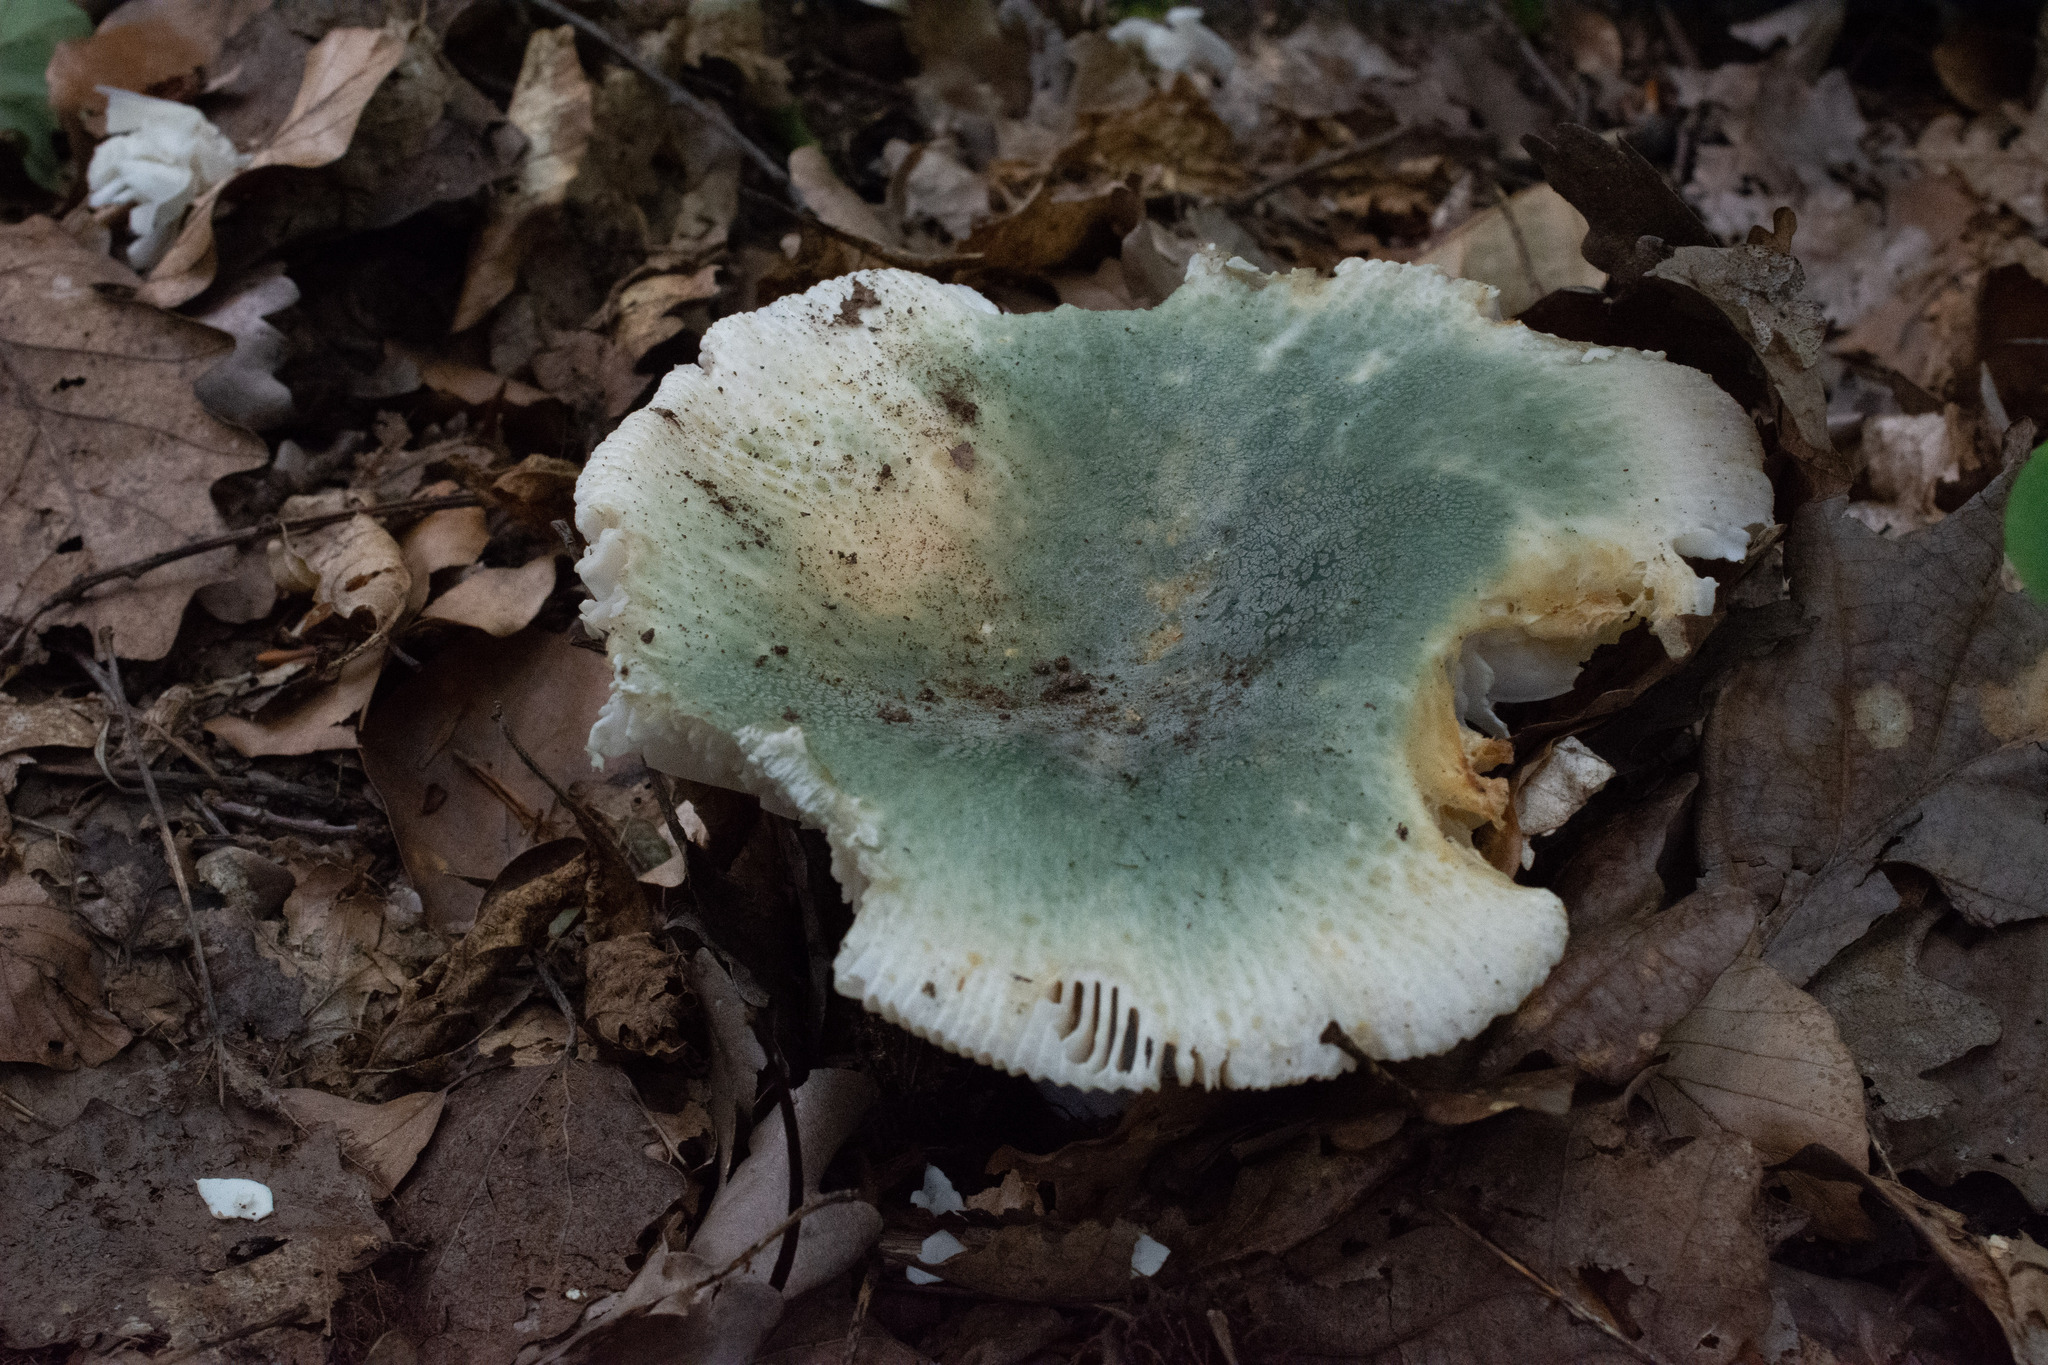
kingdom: Fungi
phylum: Basidiomycota
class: Agaricomycetes
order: Russulales
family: Russulaceae
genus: Russula
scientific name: Russula virescens
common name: Greencracked brittlegill
